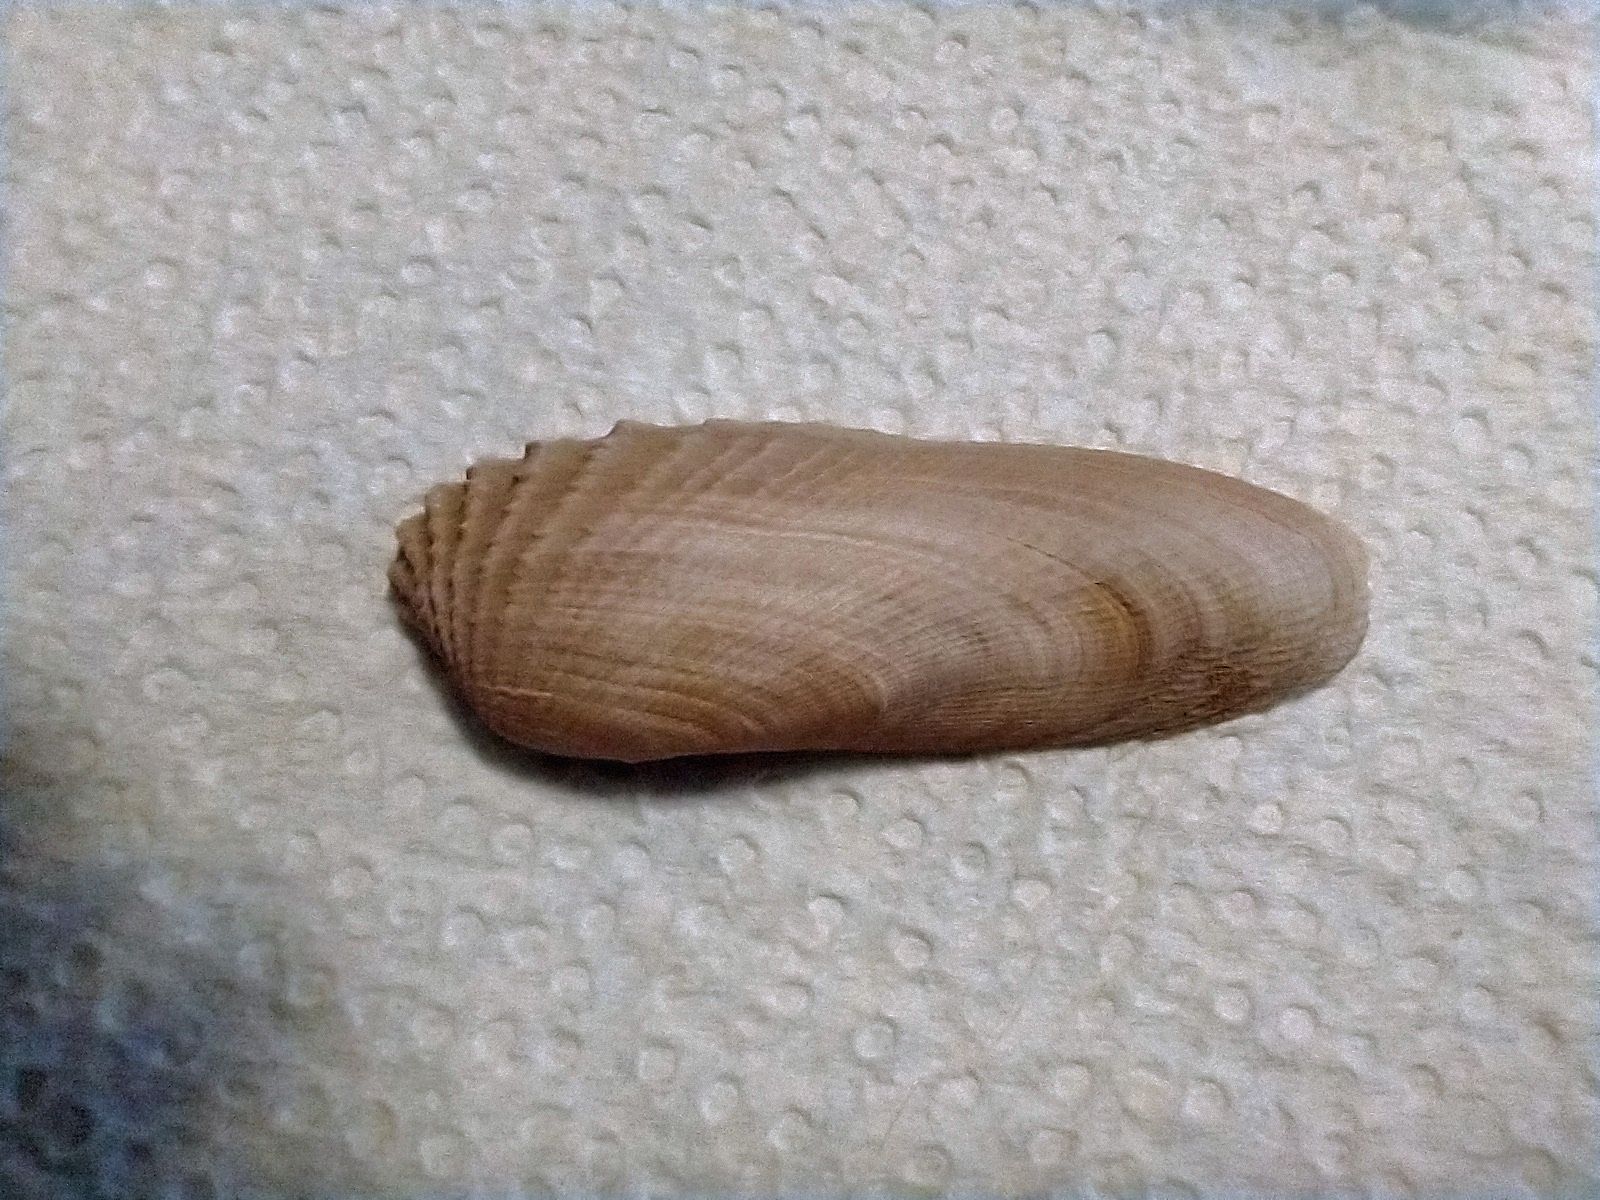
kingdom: Animalia
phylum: Mollusca
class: Bivalvia
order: Venerida
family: Veneridae
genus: Petricolaria
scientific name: Petricolaria pholadiformis
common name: American piddock
